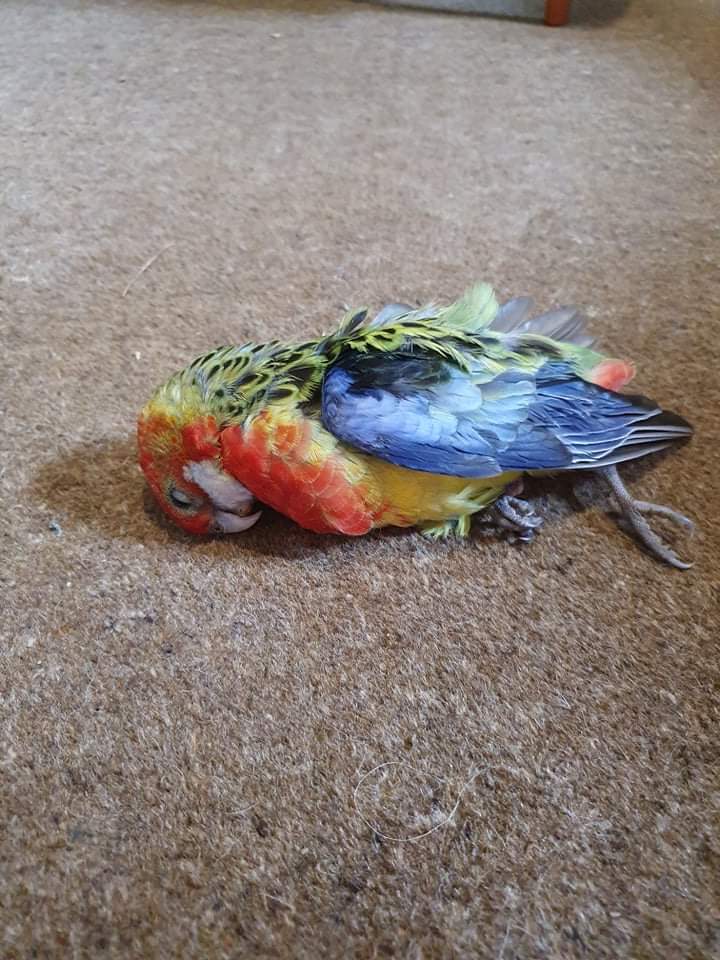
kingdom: Animalia
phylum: Chordata
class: Aves
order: Psittaciformes
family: Psittacidae
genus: Platycercus
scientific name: Platycercus eximius
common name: Eastern rosella
